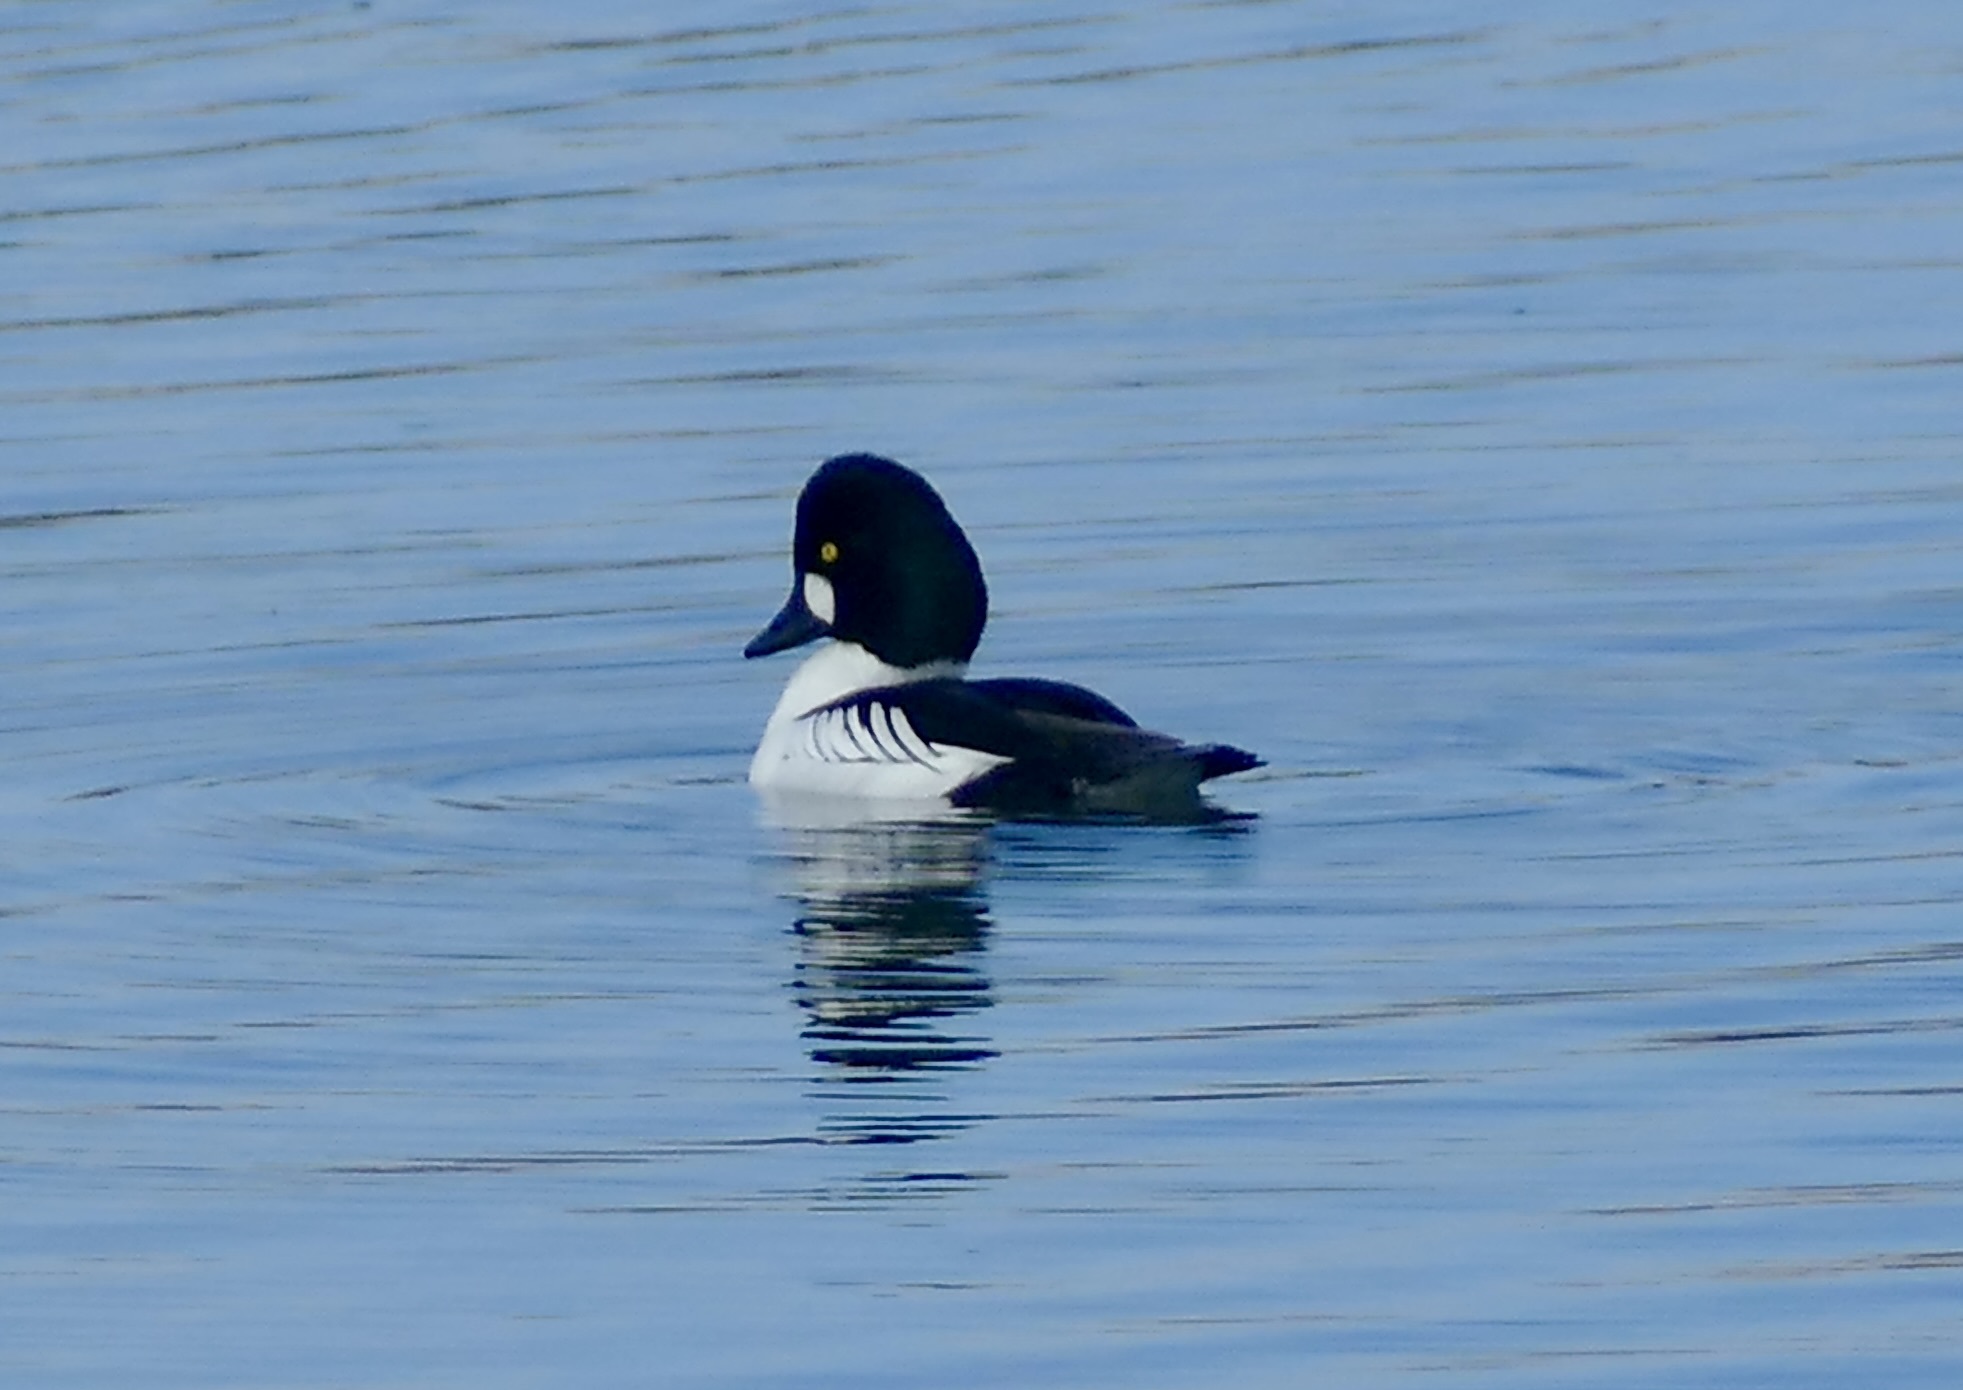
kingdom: Animalia
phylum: Chordata
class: Aves
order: Anseriformes
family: Anatidae
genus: Bucephala
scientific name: Bucephala clangula
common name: Common goldeneye
